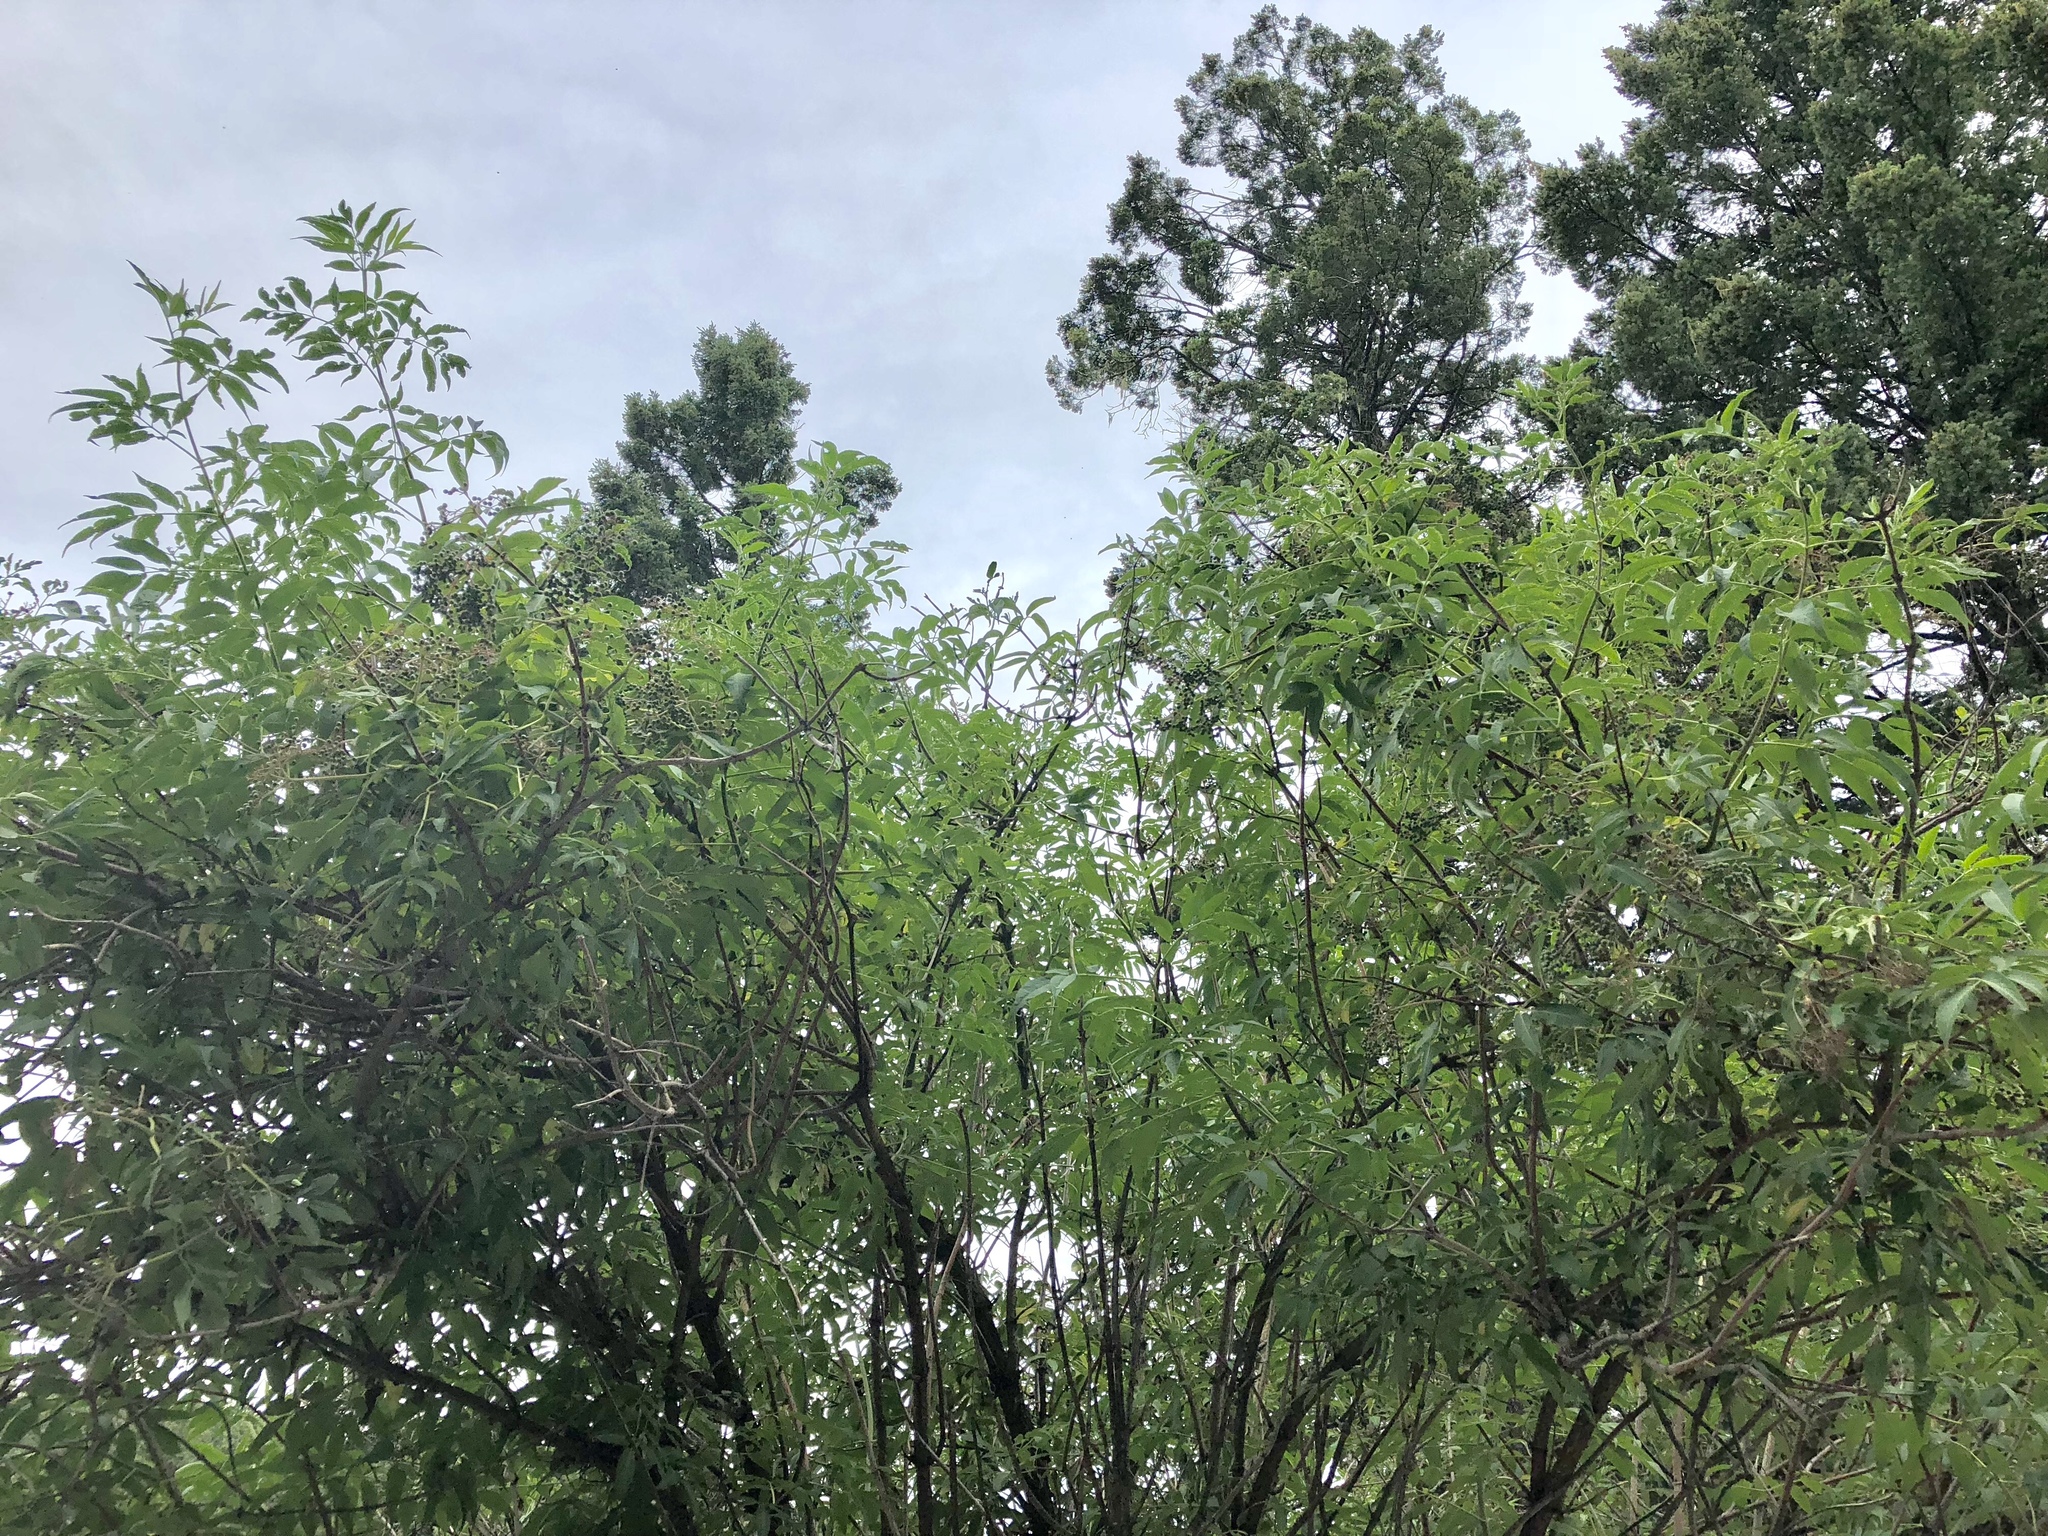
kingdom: Plantae
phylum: Tracheophyta
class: Magnoliopsida
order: Dipsacales
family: Viburnaceae
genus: Sambucus
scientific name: Sambucus racemosa
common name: Red-berried elder
